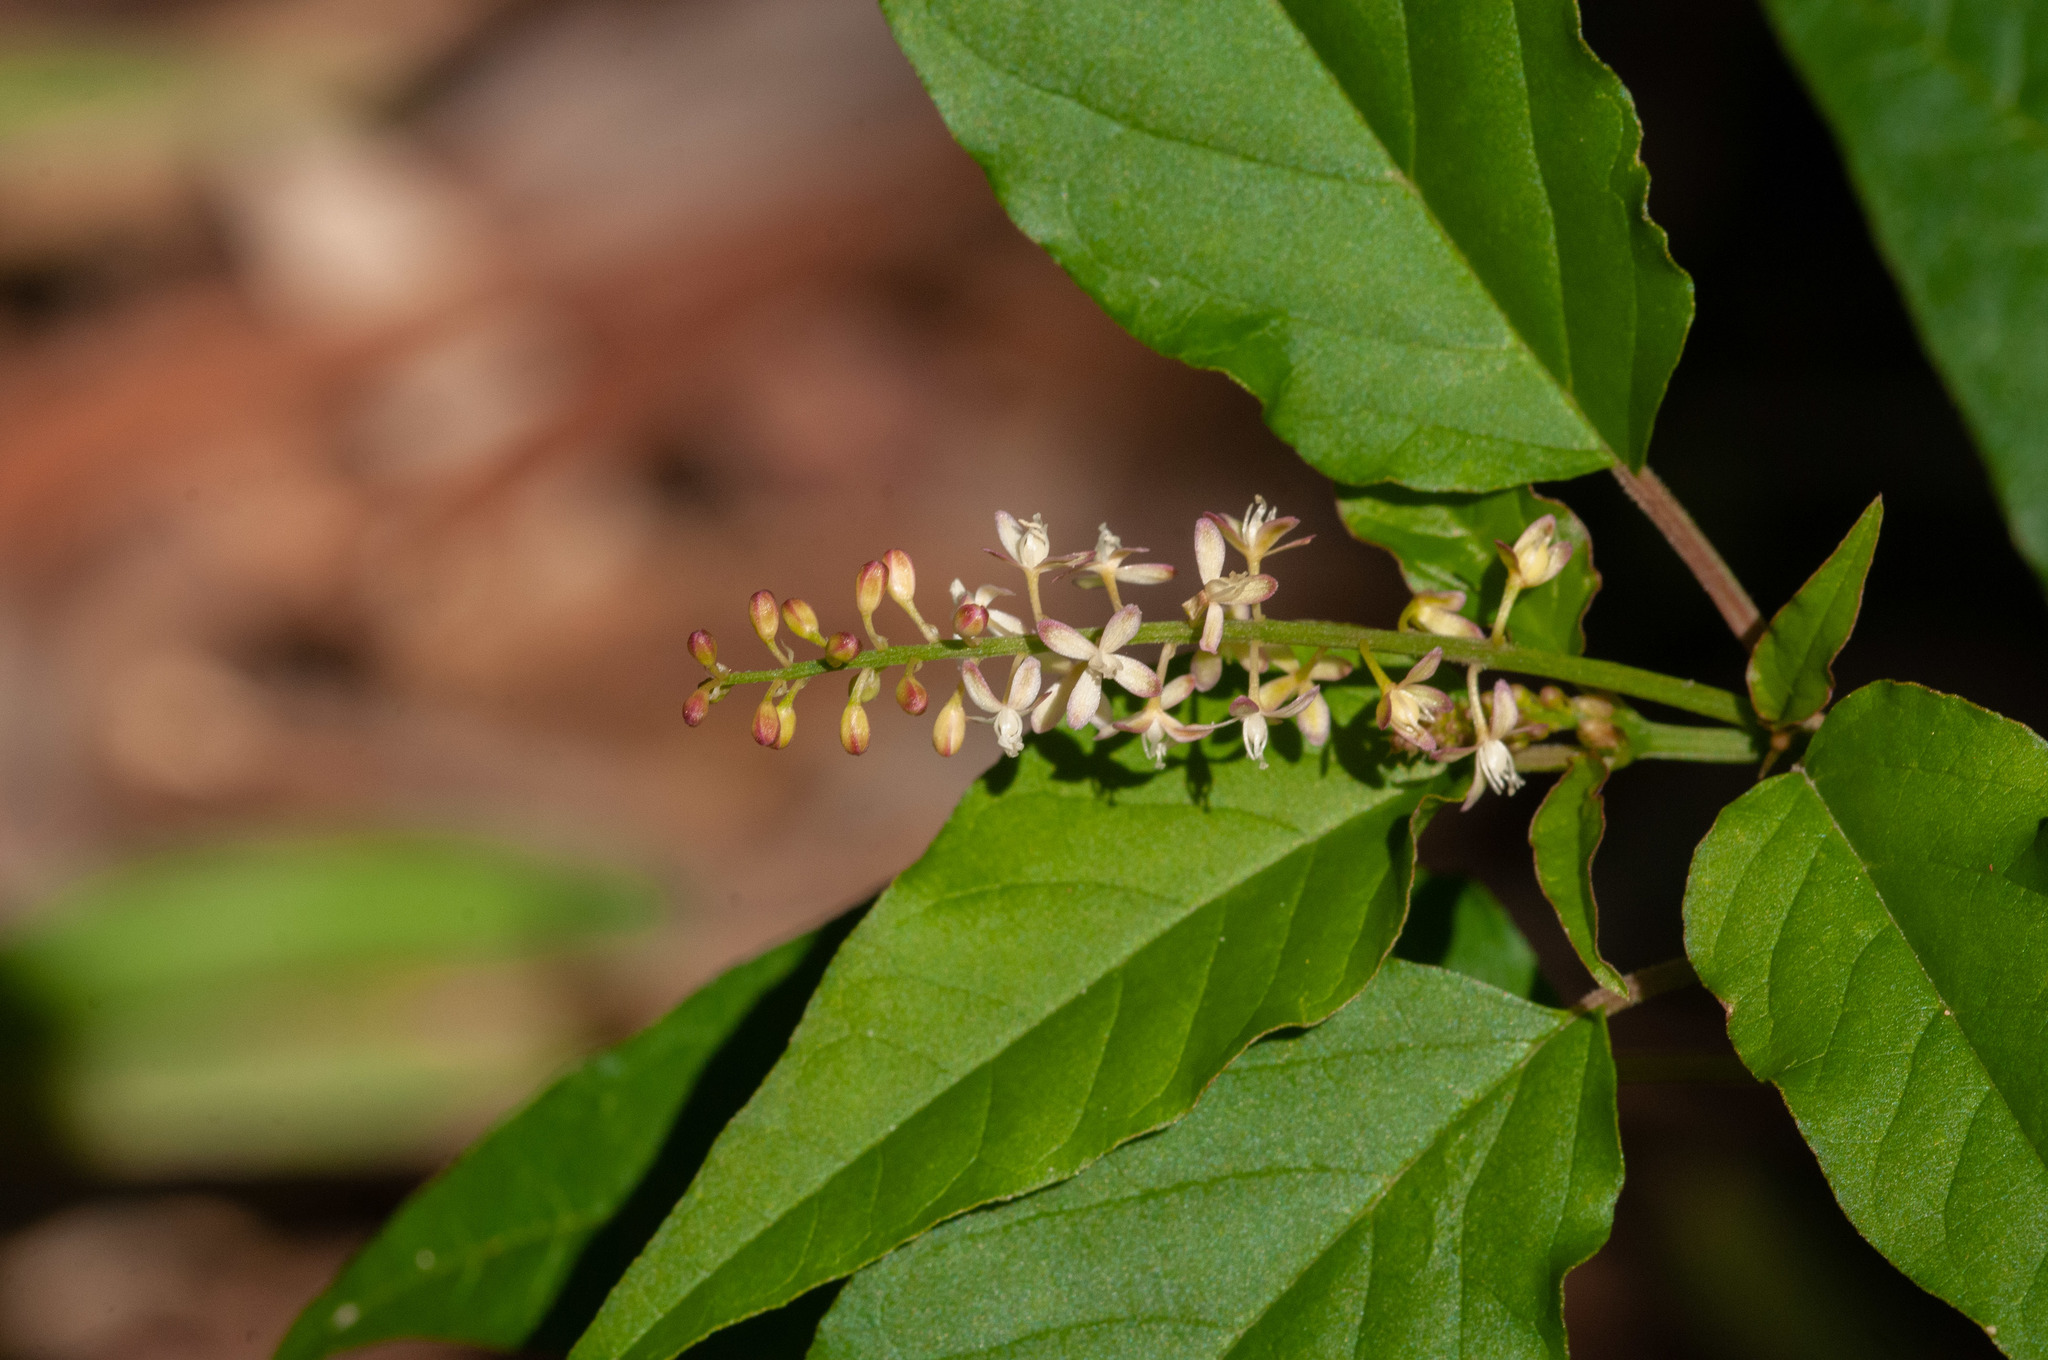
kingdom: Plantae
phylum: Tracheophyta
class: Magnoliopsida
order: Caryophyllales
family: Phytolaccaceae
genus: Rivina
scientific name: Rivina humilis
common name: Rougeplant
